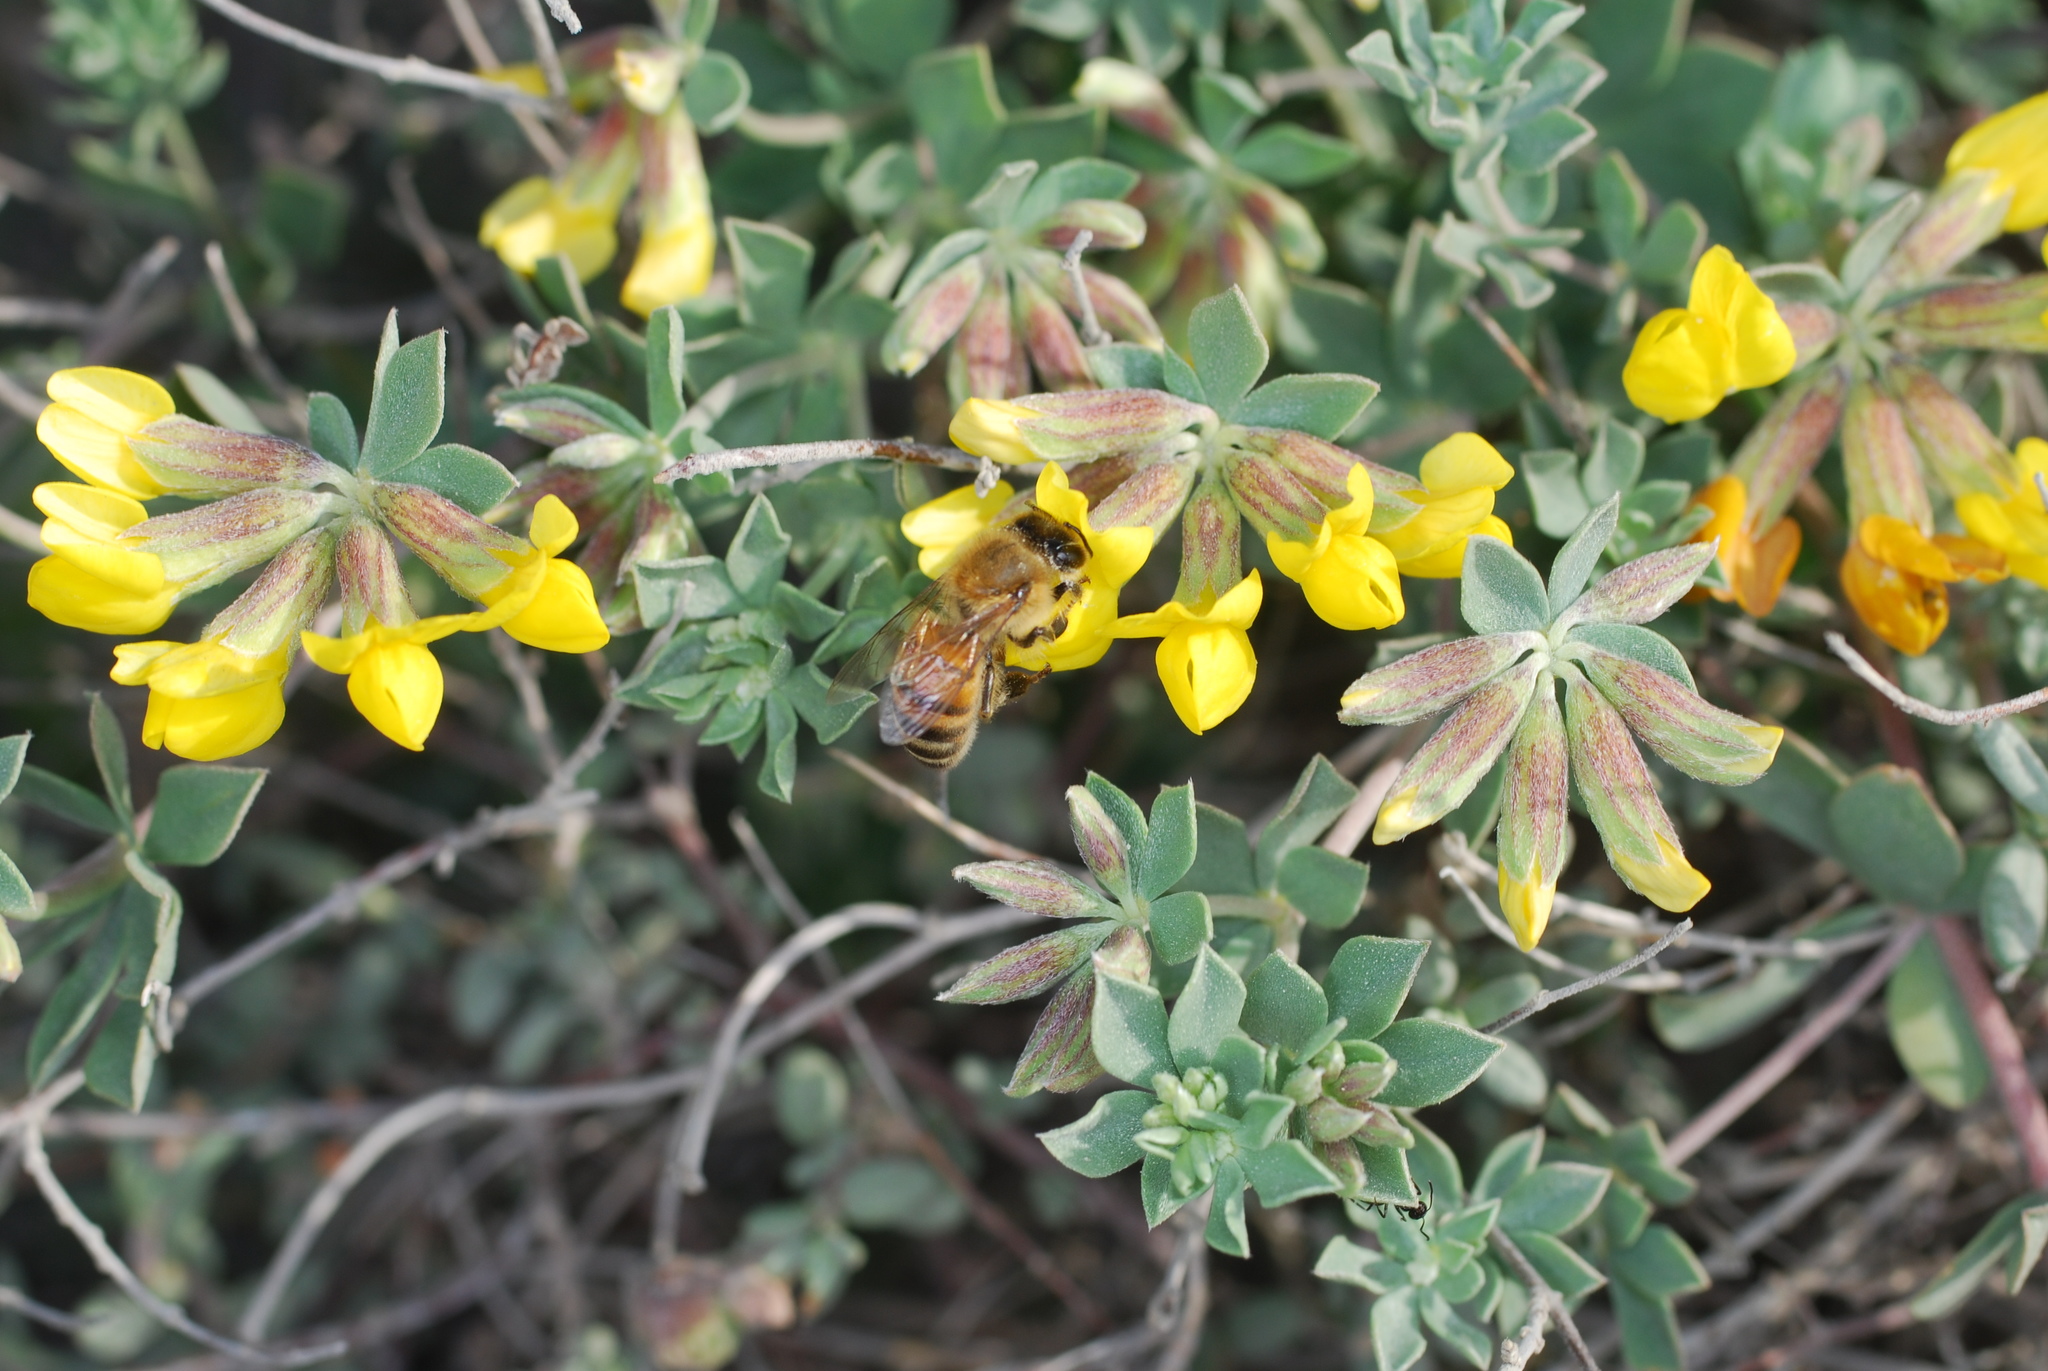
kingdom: Animalia
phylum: Arthropoda
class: Insecta
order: Hymenoptera
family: Apidae
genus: Apis
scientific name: Apis mellifera
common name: Honey bee
